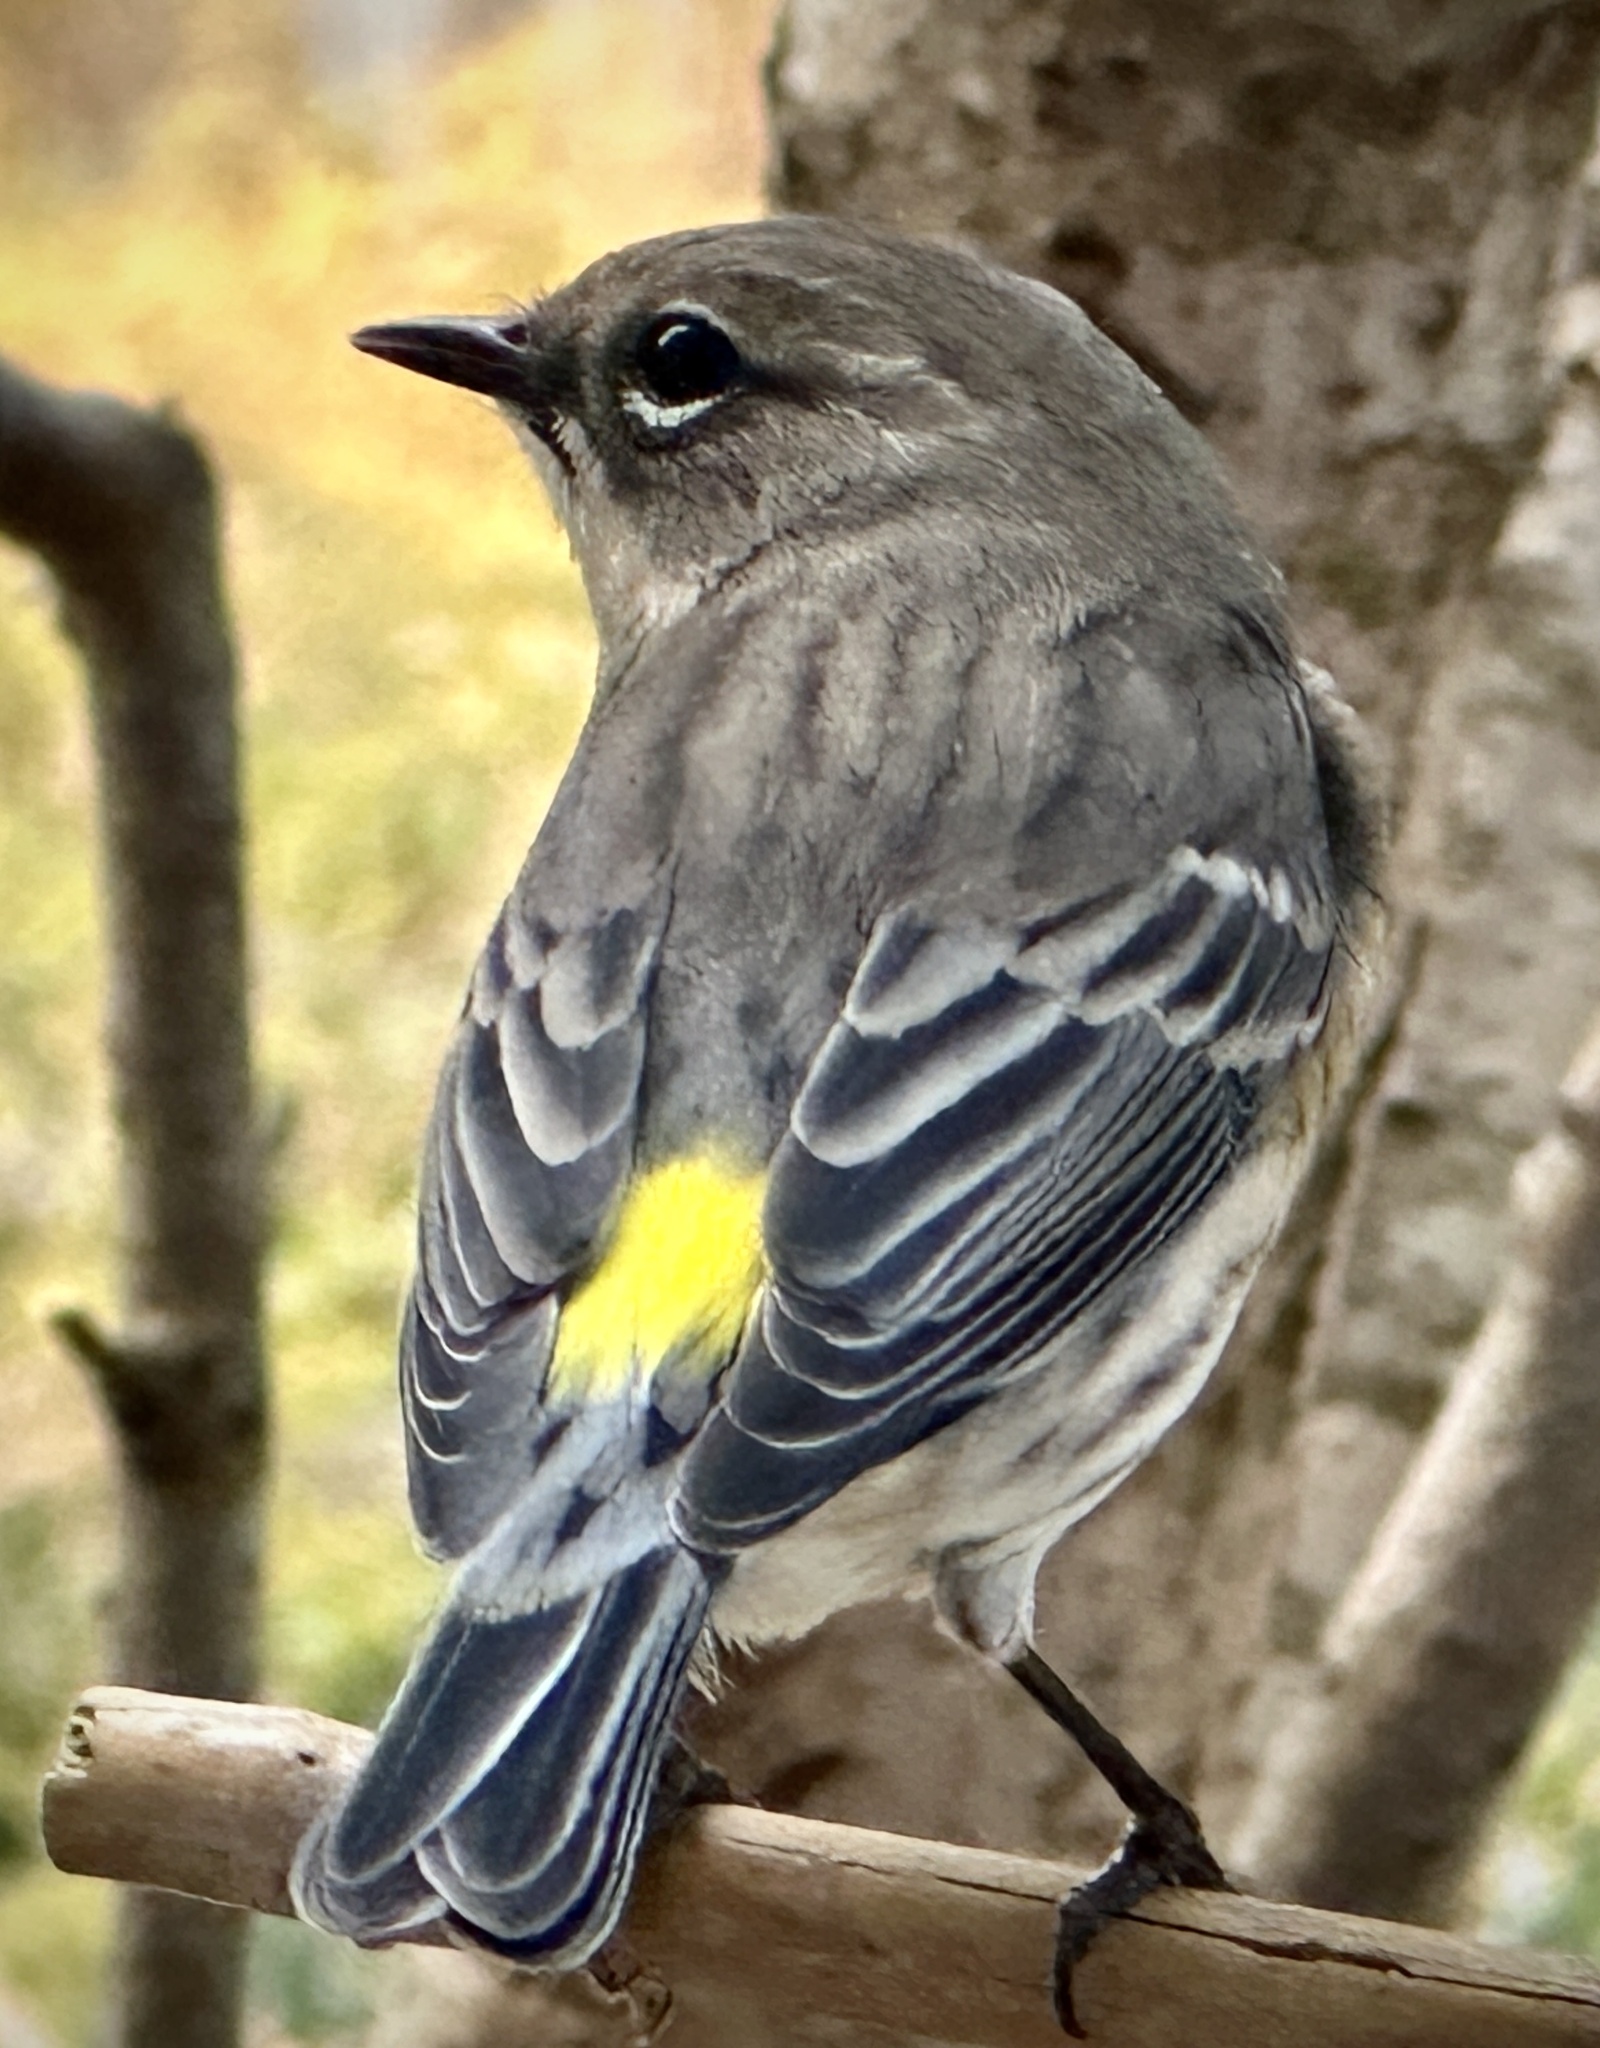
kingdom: Animalia
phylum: Chordata
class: Aves
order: Passeriformes
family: Parulidae
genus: Setophaga
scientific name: Setophaga coronata
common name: Myrtle warbler
